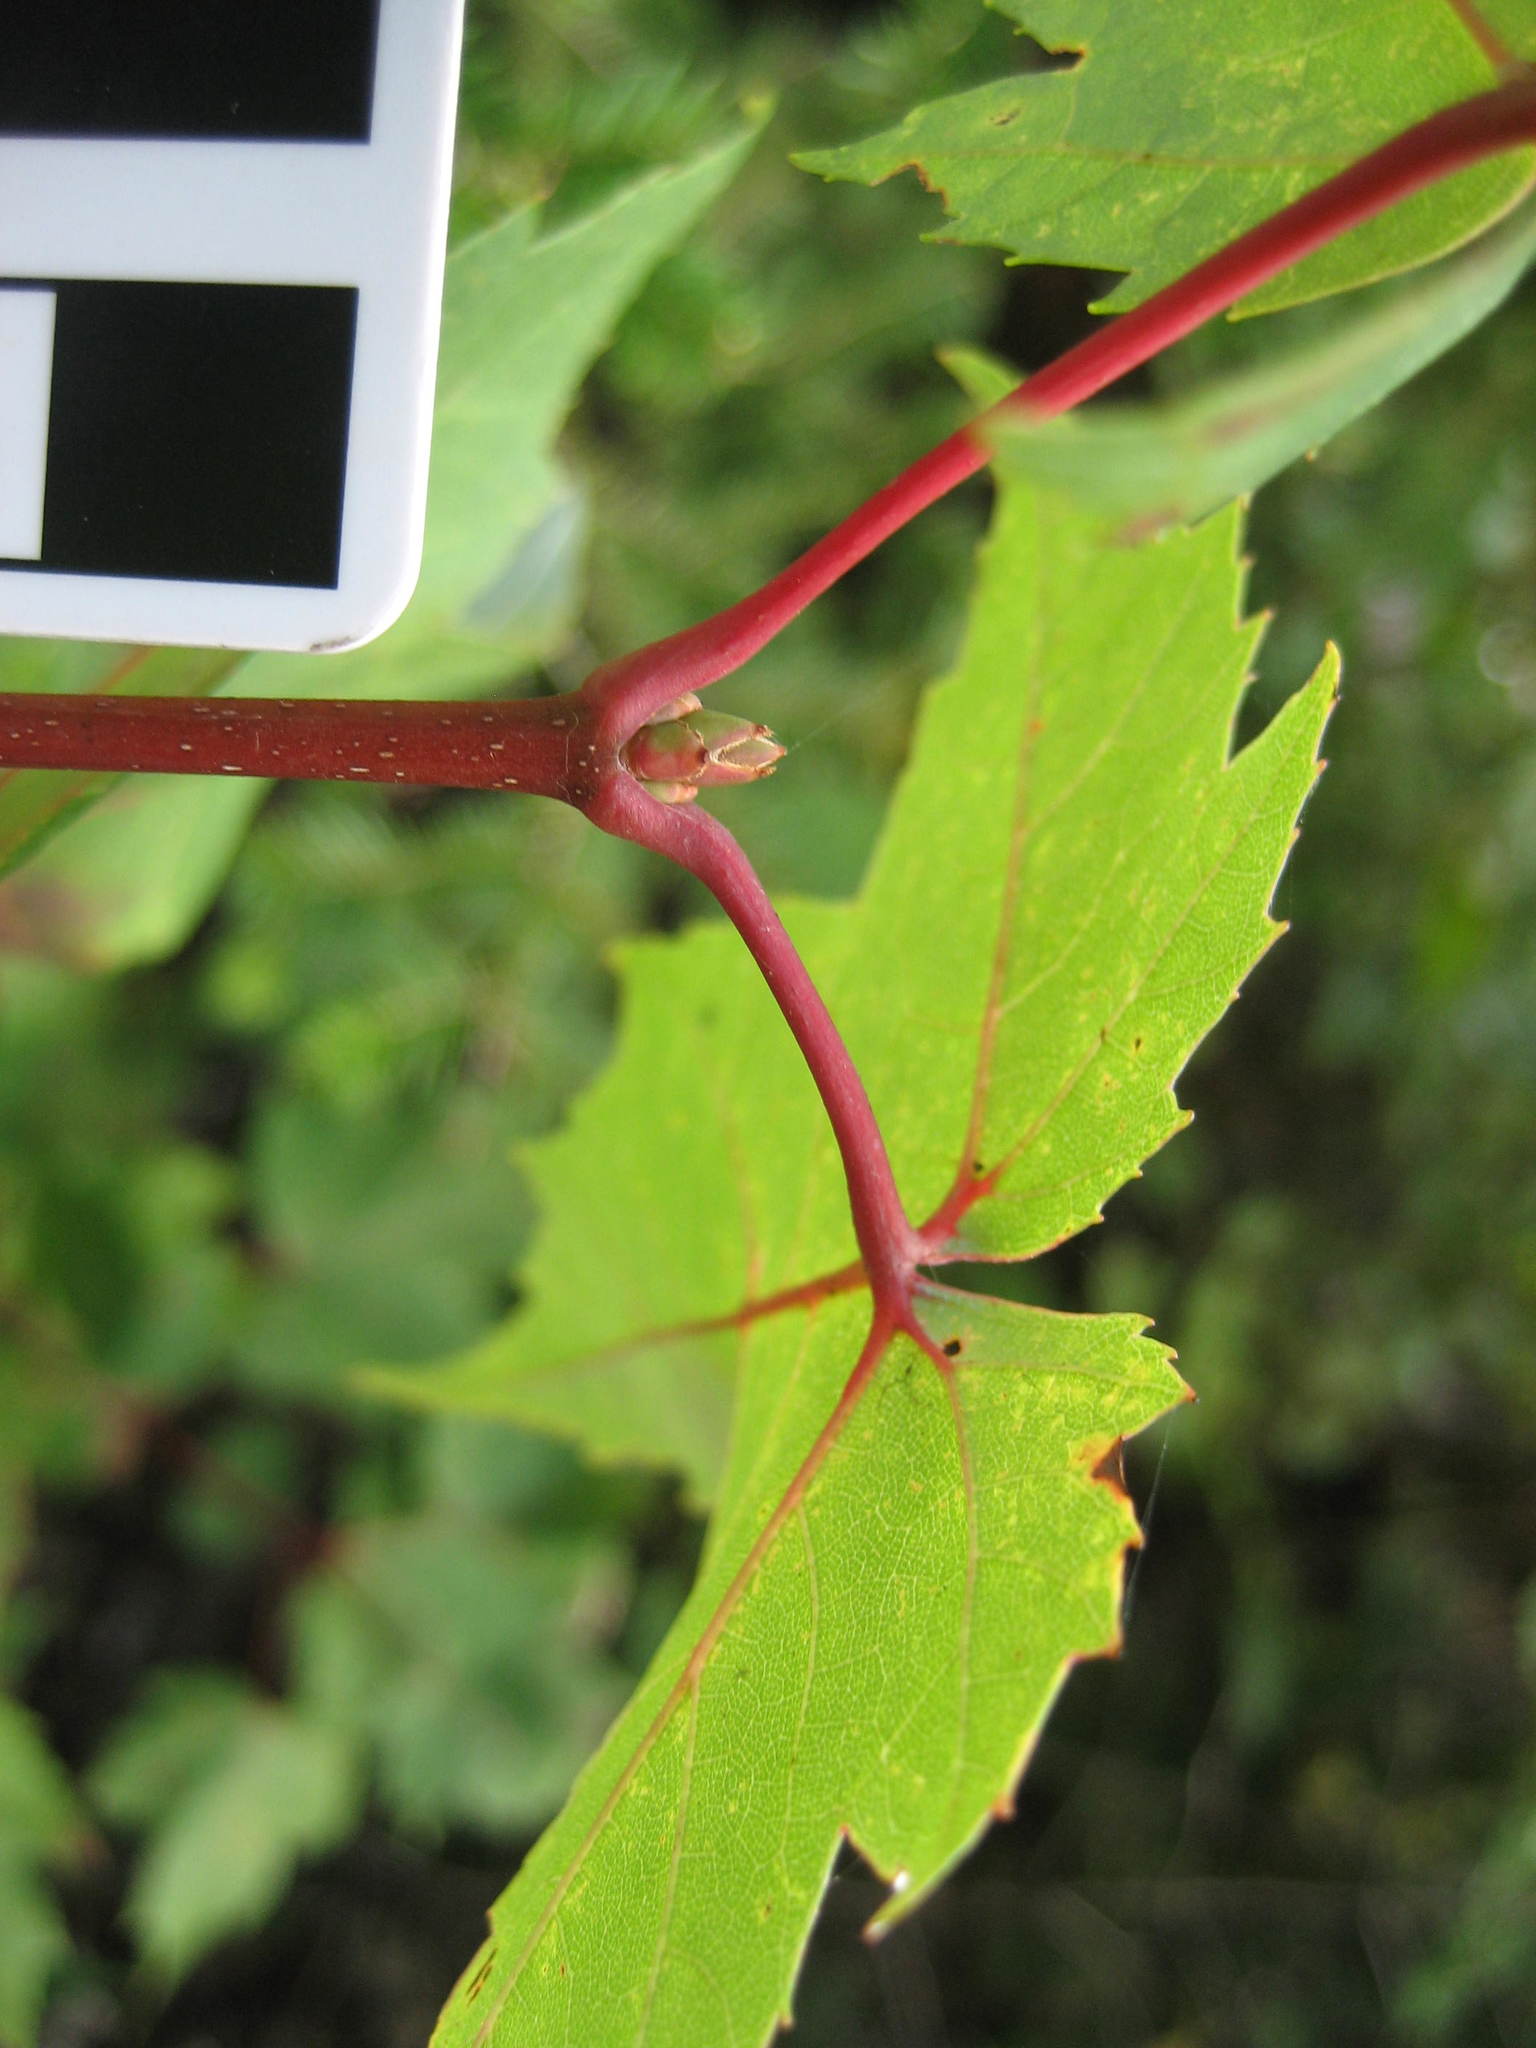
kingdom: Plantae
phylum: Tracheophyta
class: Magnoliopsida
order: Sapindales
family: Sapindaceae
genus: Acer
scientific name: Acer rubrum
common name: Red maple
